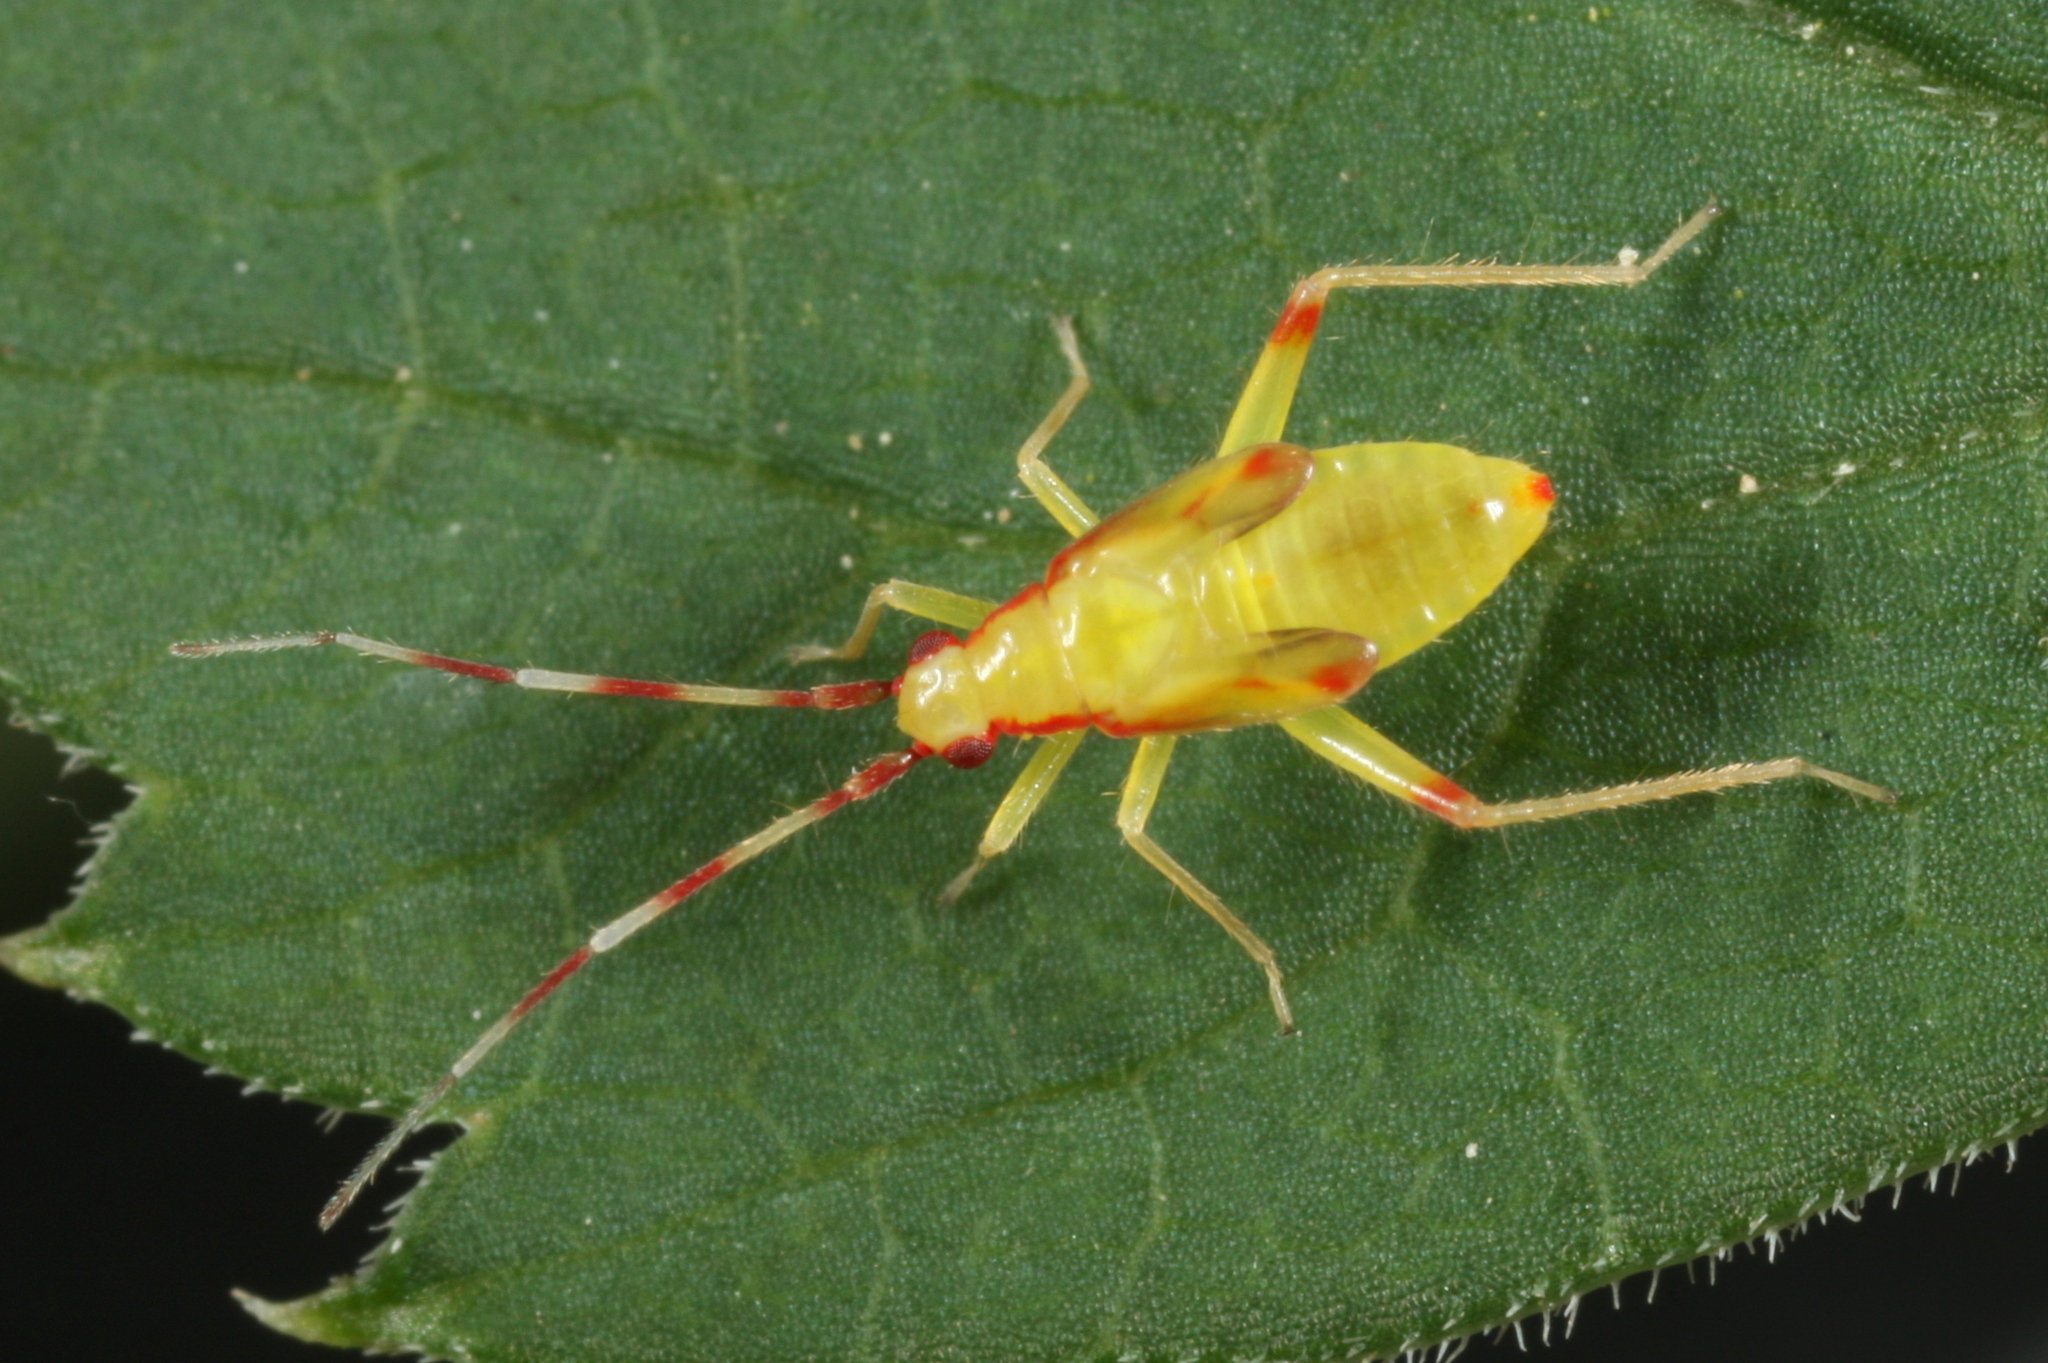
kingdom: Animalia
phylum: Arthropoda
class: Insecta
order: Hemiptera
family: Miridae
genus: Campyloneura
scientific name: Campyloneura virgula
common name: Predatory bug
